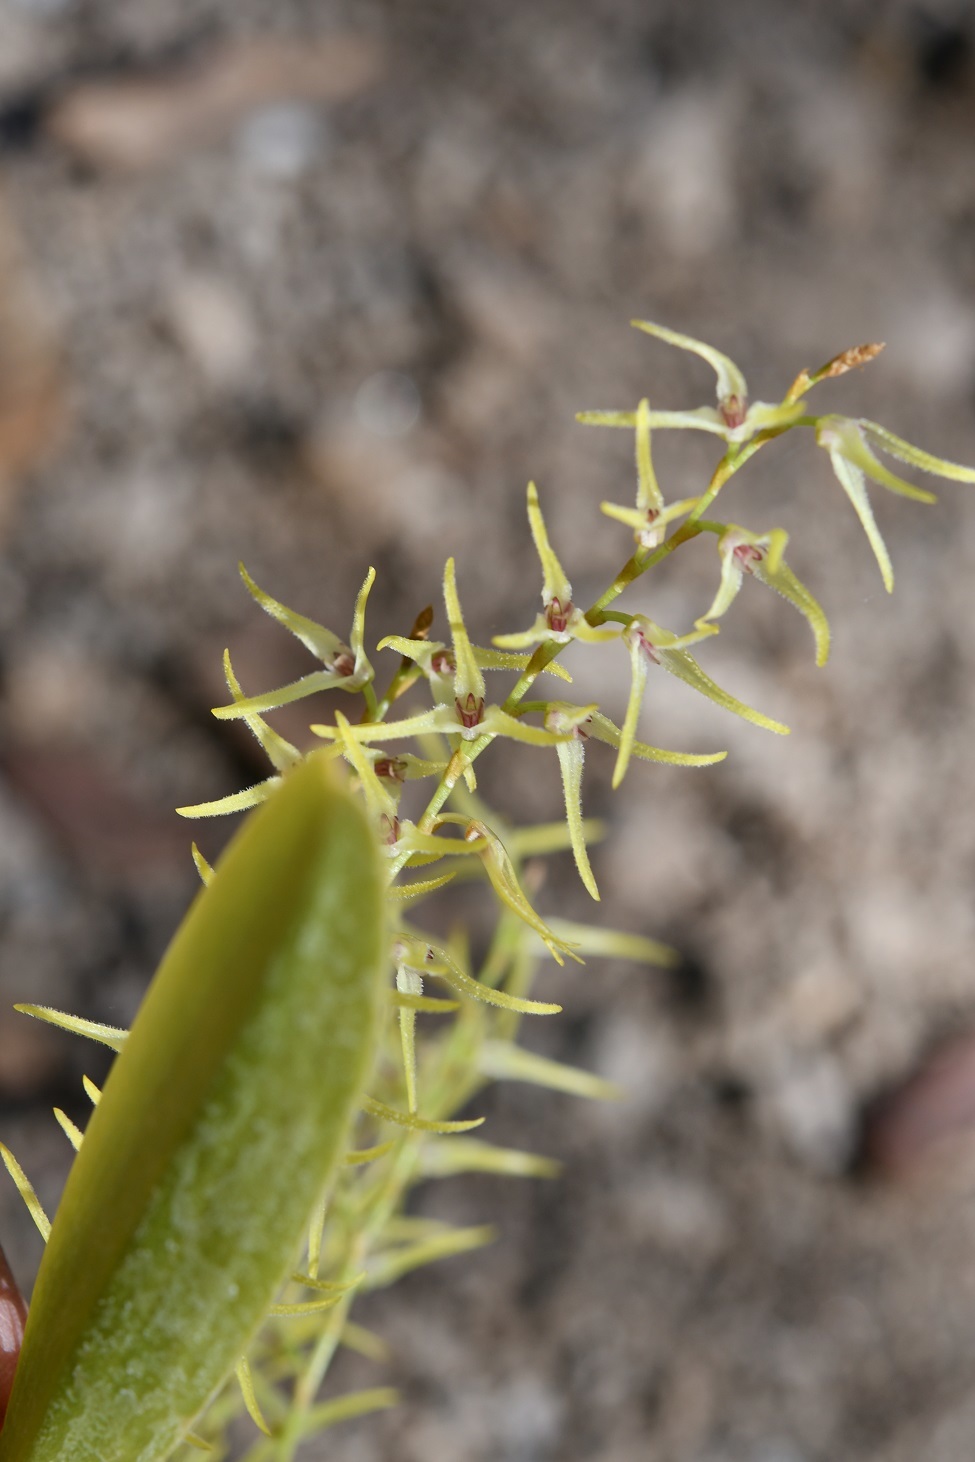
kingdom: Plantae
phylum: Tracheophyta
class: Liliopsida
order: Asparagales
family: Orchidaceae
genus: Stelis
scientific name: Stelis poasensis
